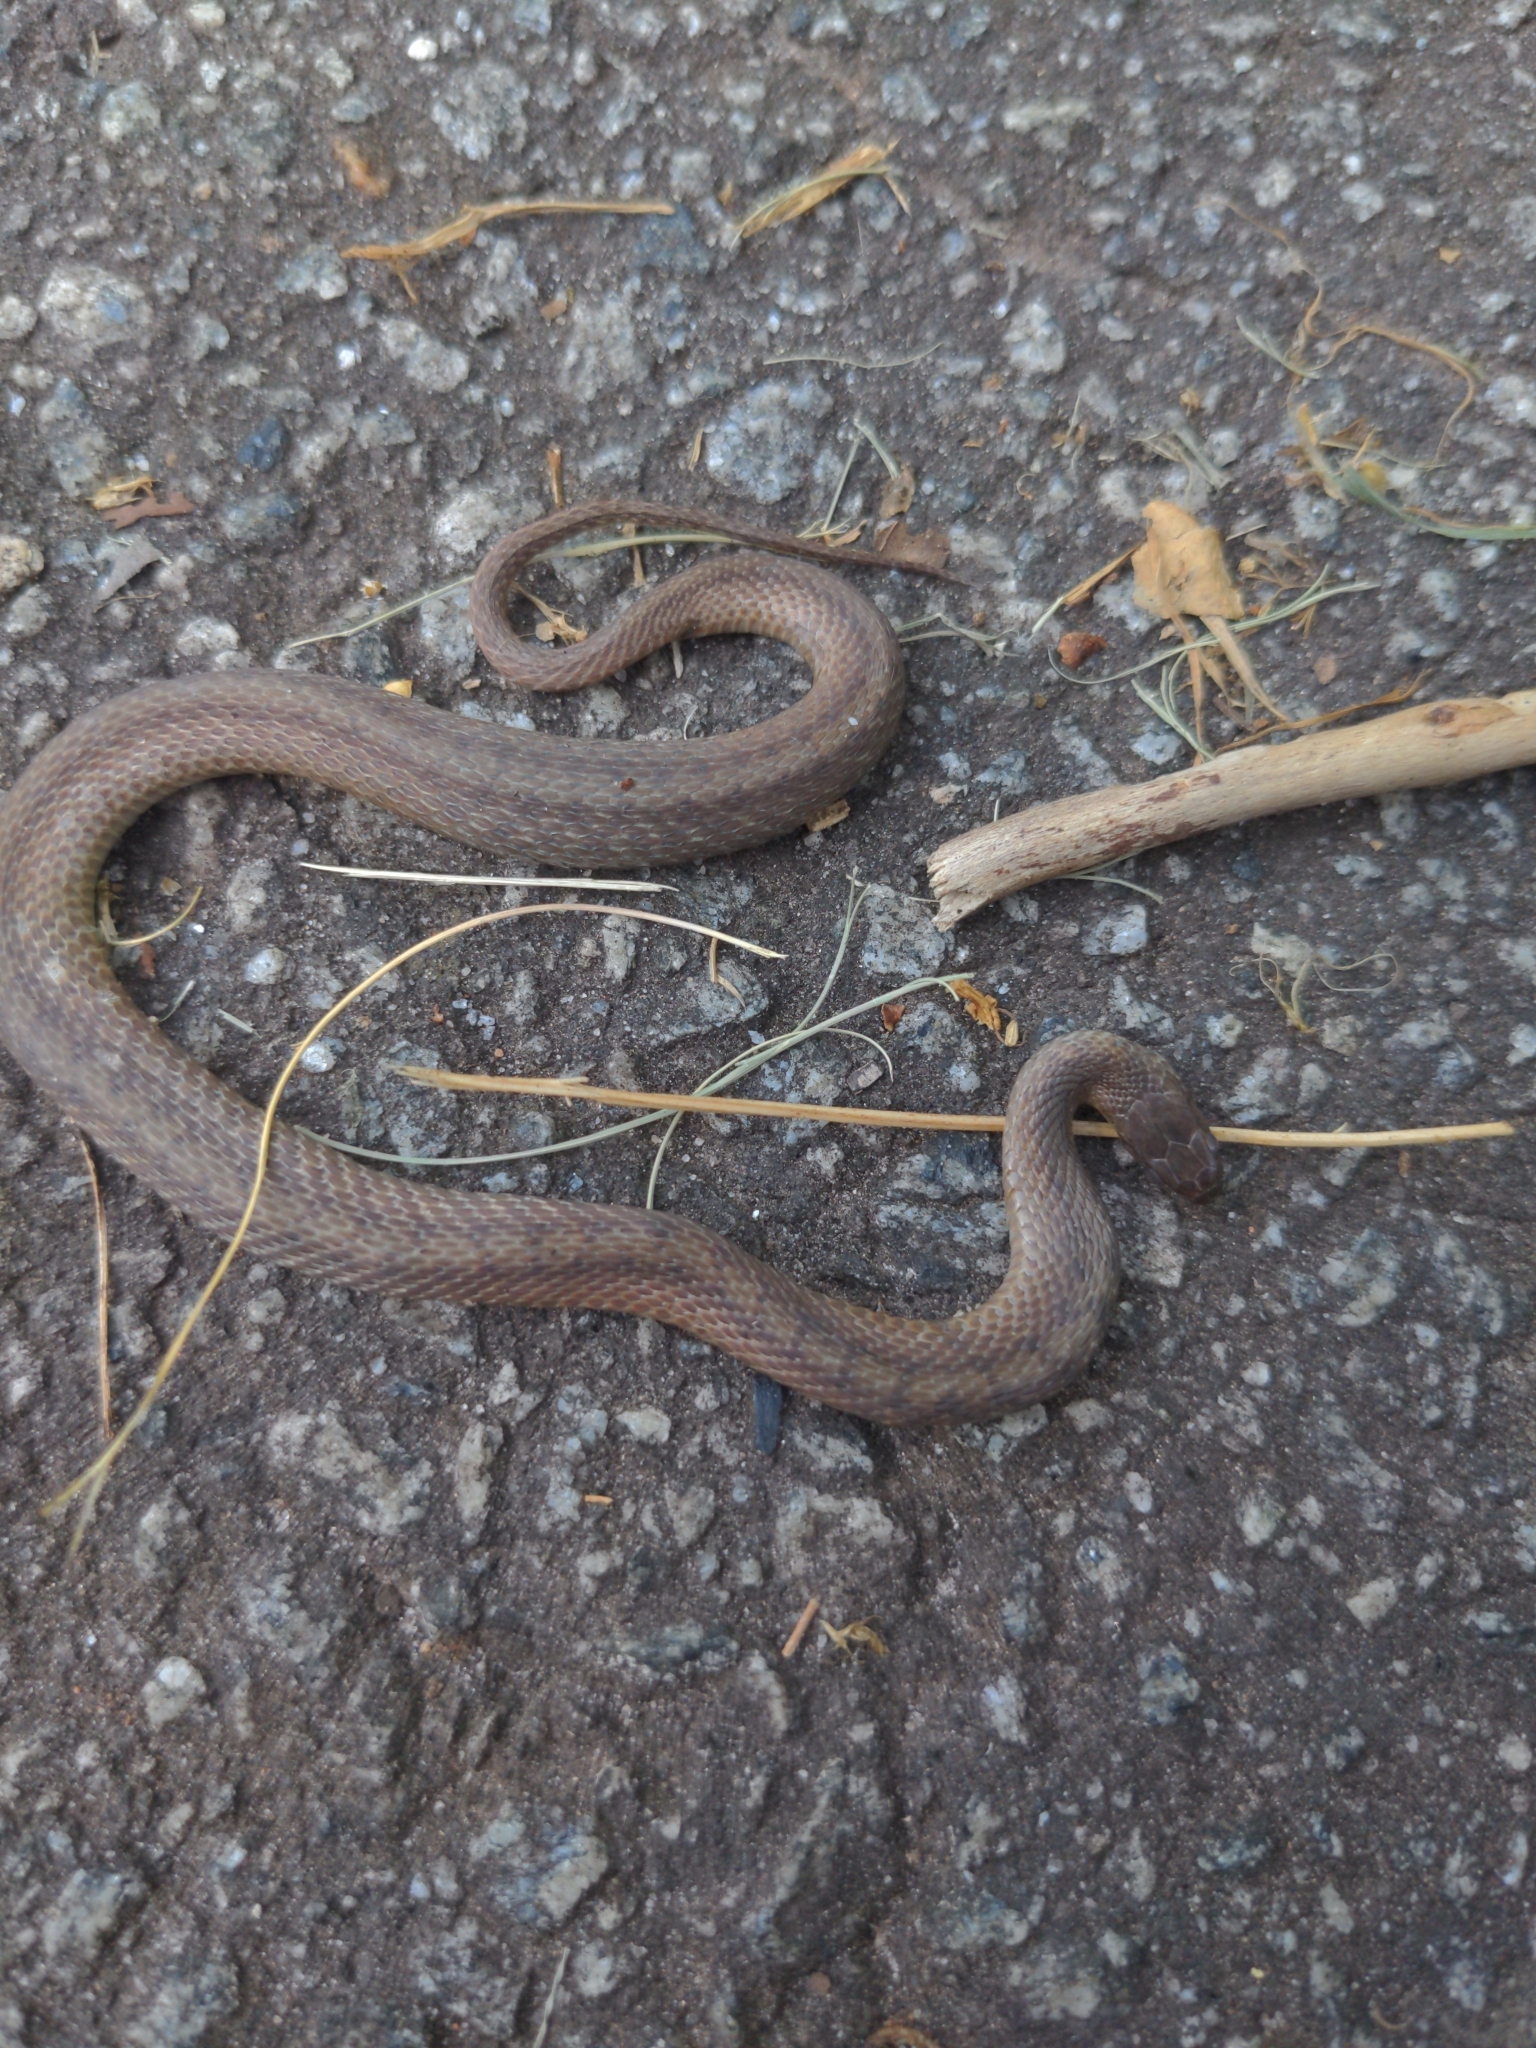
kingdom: Animalia
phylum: Chordata
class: Squamata
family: Colubridae
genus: Storeria
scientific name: Storeria dekayi
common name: (dekay’s) brown snake
